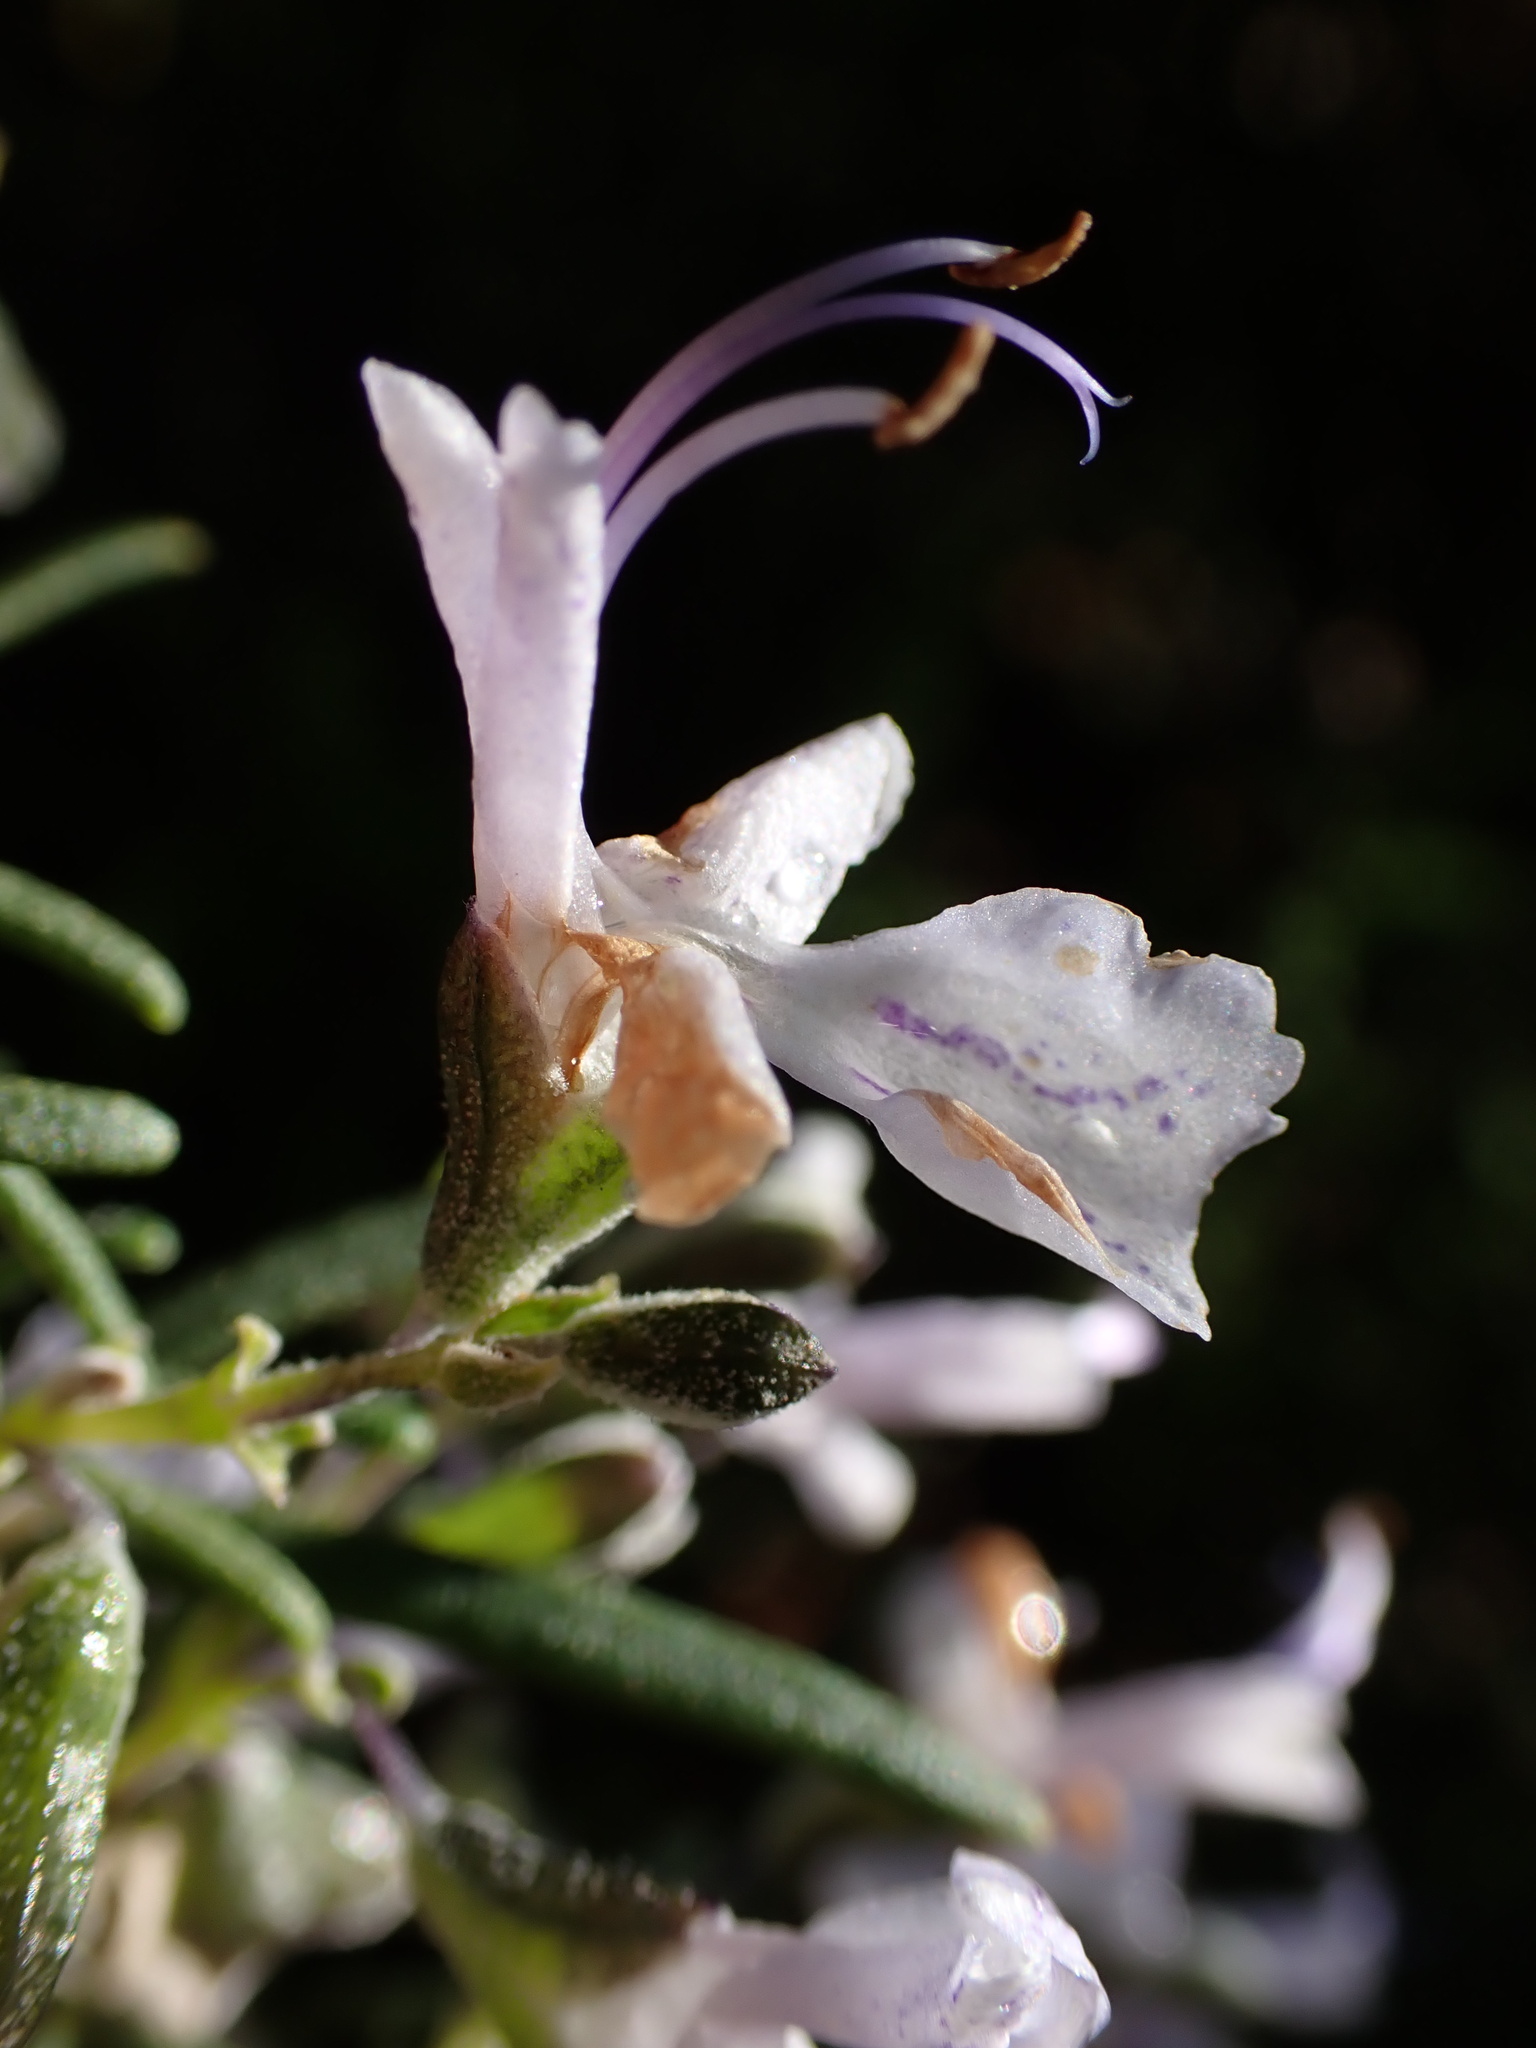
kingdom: Plantae
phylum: Tracheophyta
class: Magnoliopsida
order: Lamiales
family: Lamiaceae
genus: Salvia
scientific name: Salvia rosmarinus
